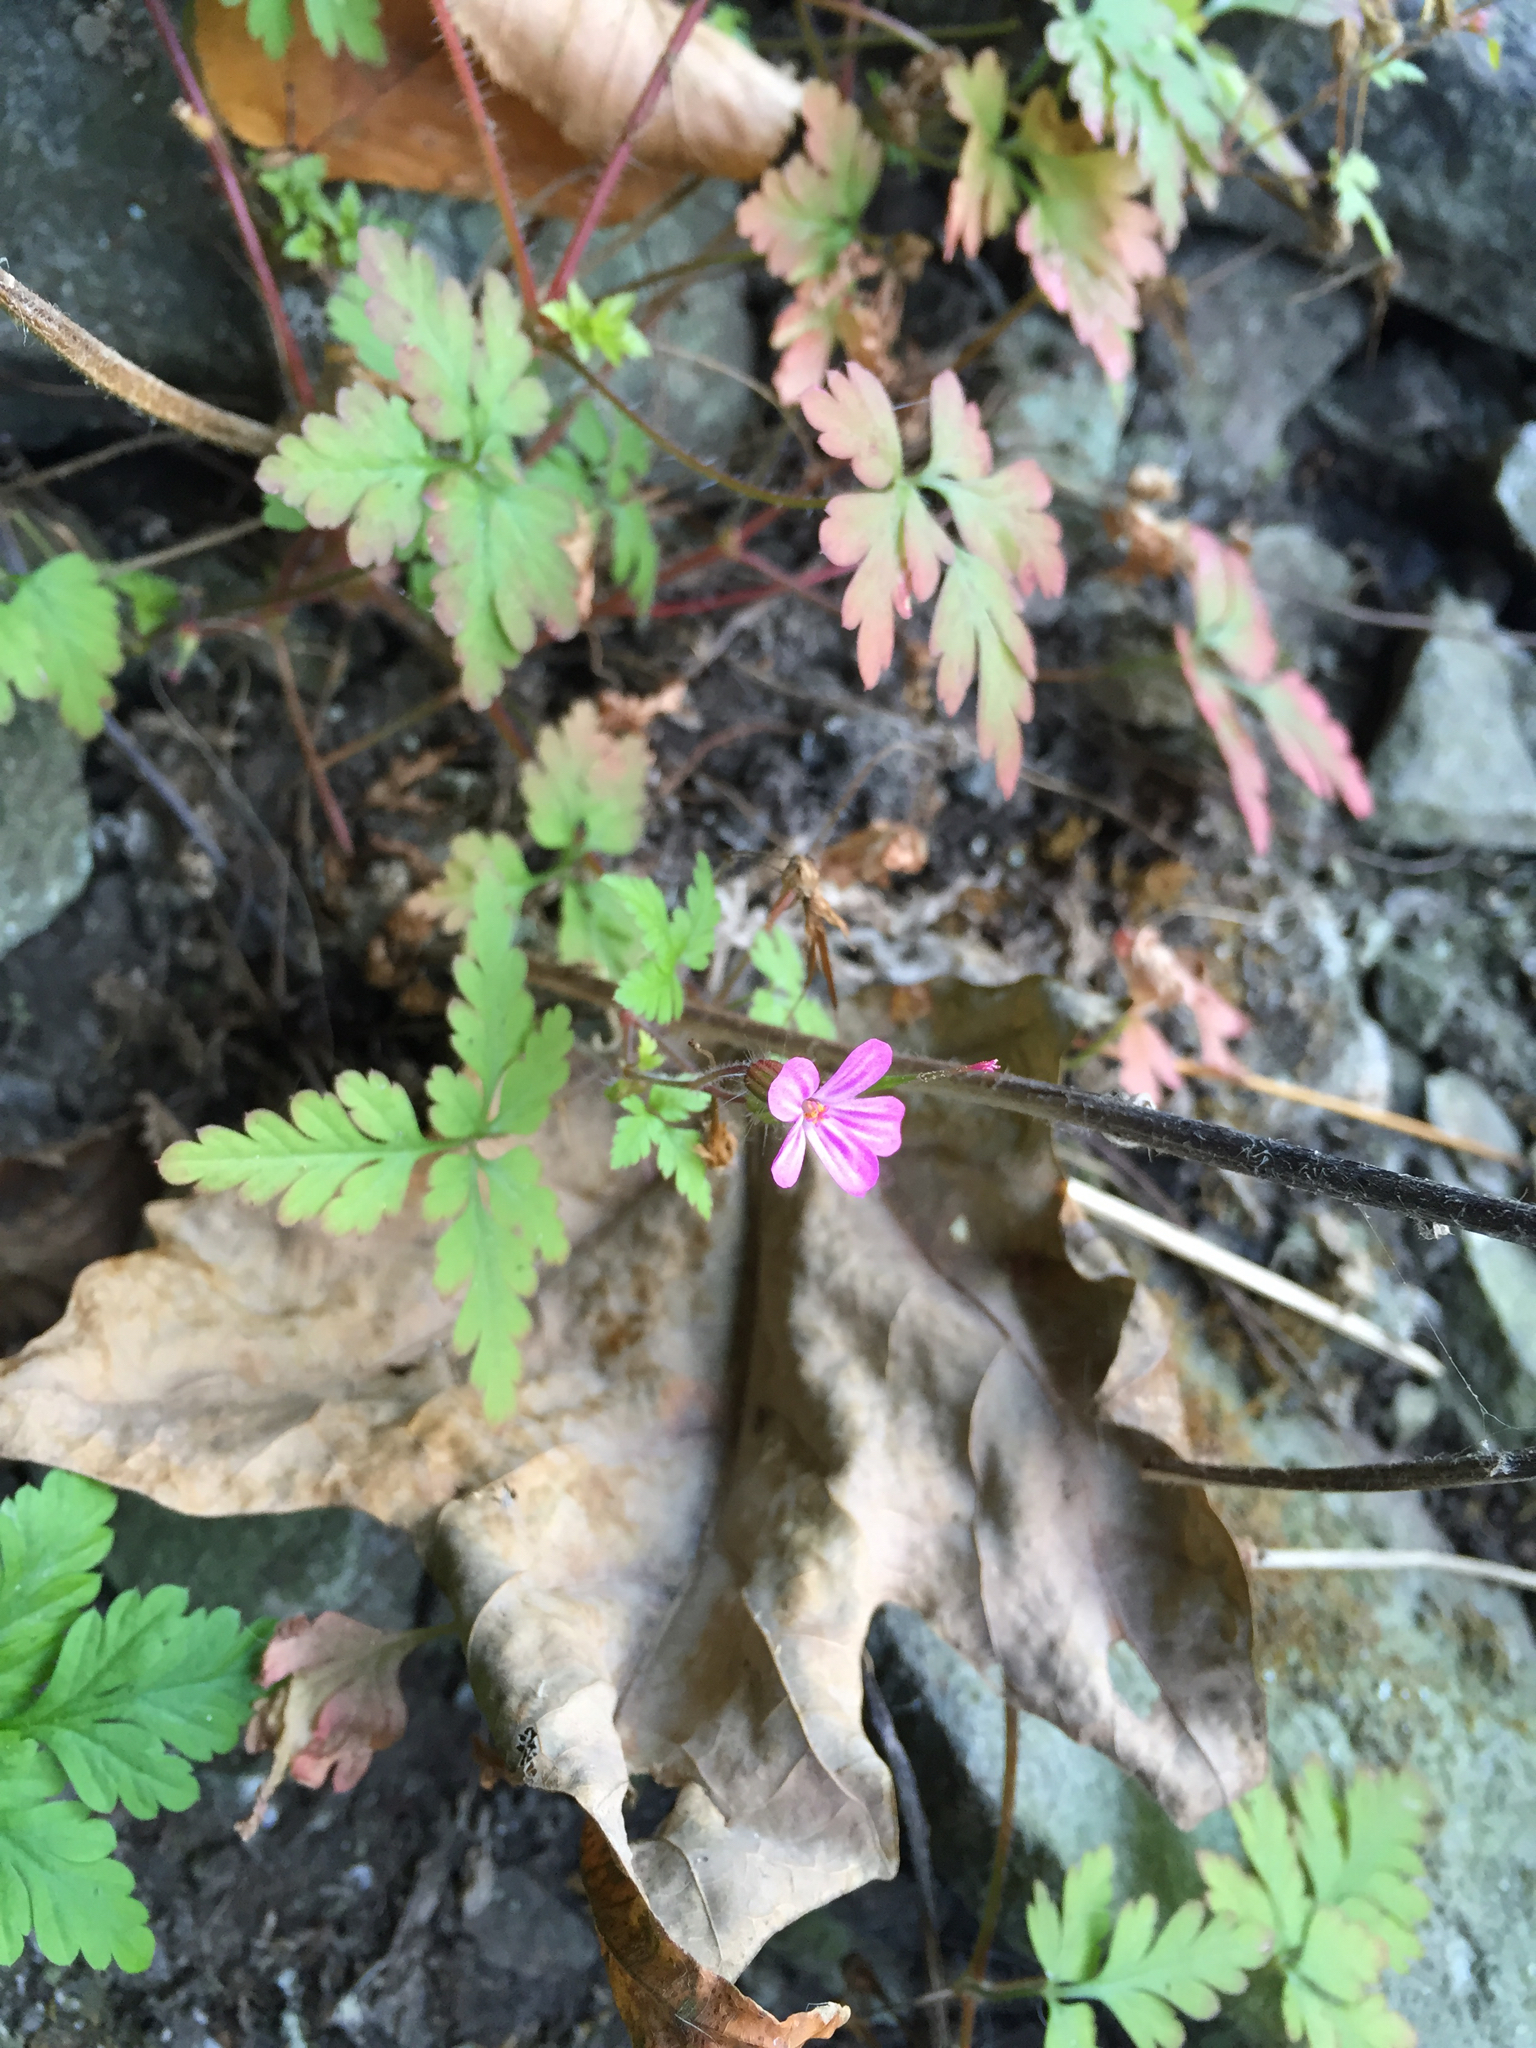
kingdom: Plantae
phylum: Tracheophyta
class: Magnoliopsida
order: Geraniales
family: Geraniaceae
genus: Geranium
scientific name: Geranium robertianum
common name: Herb-robert
